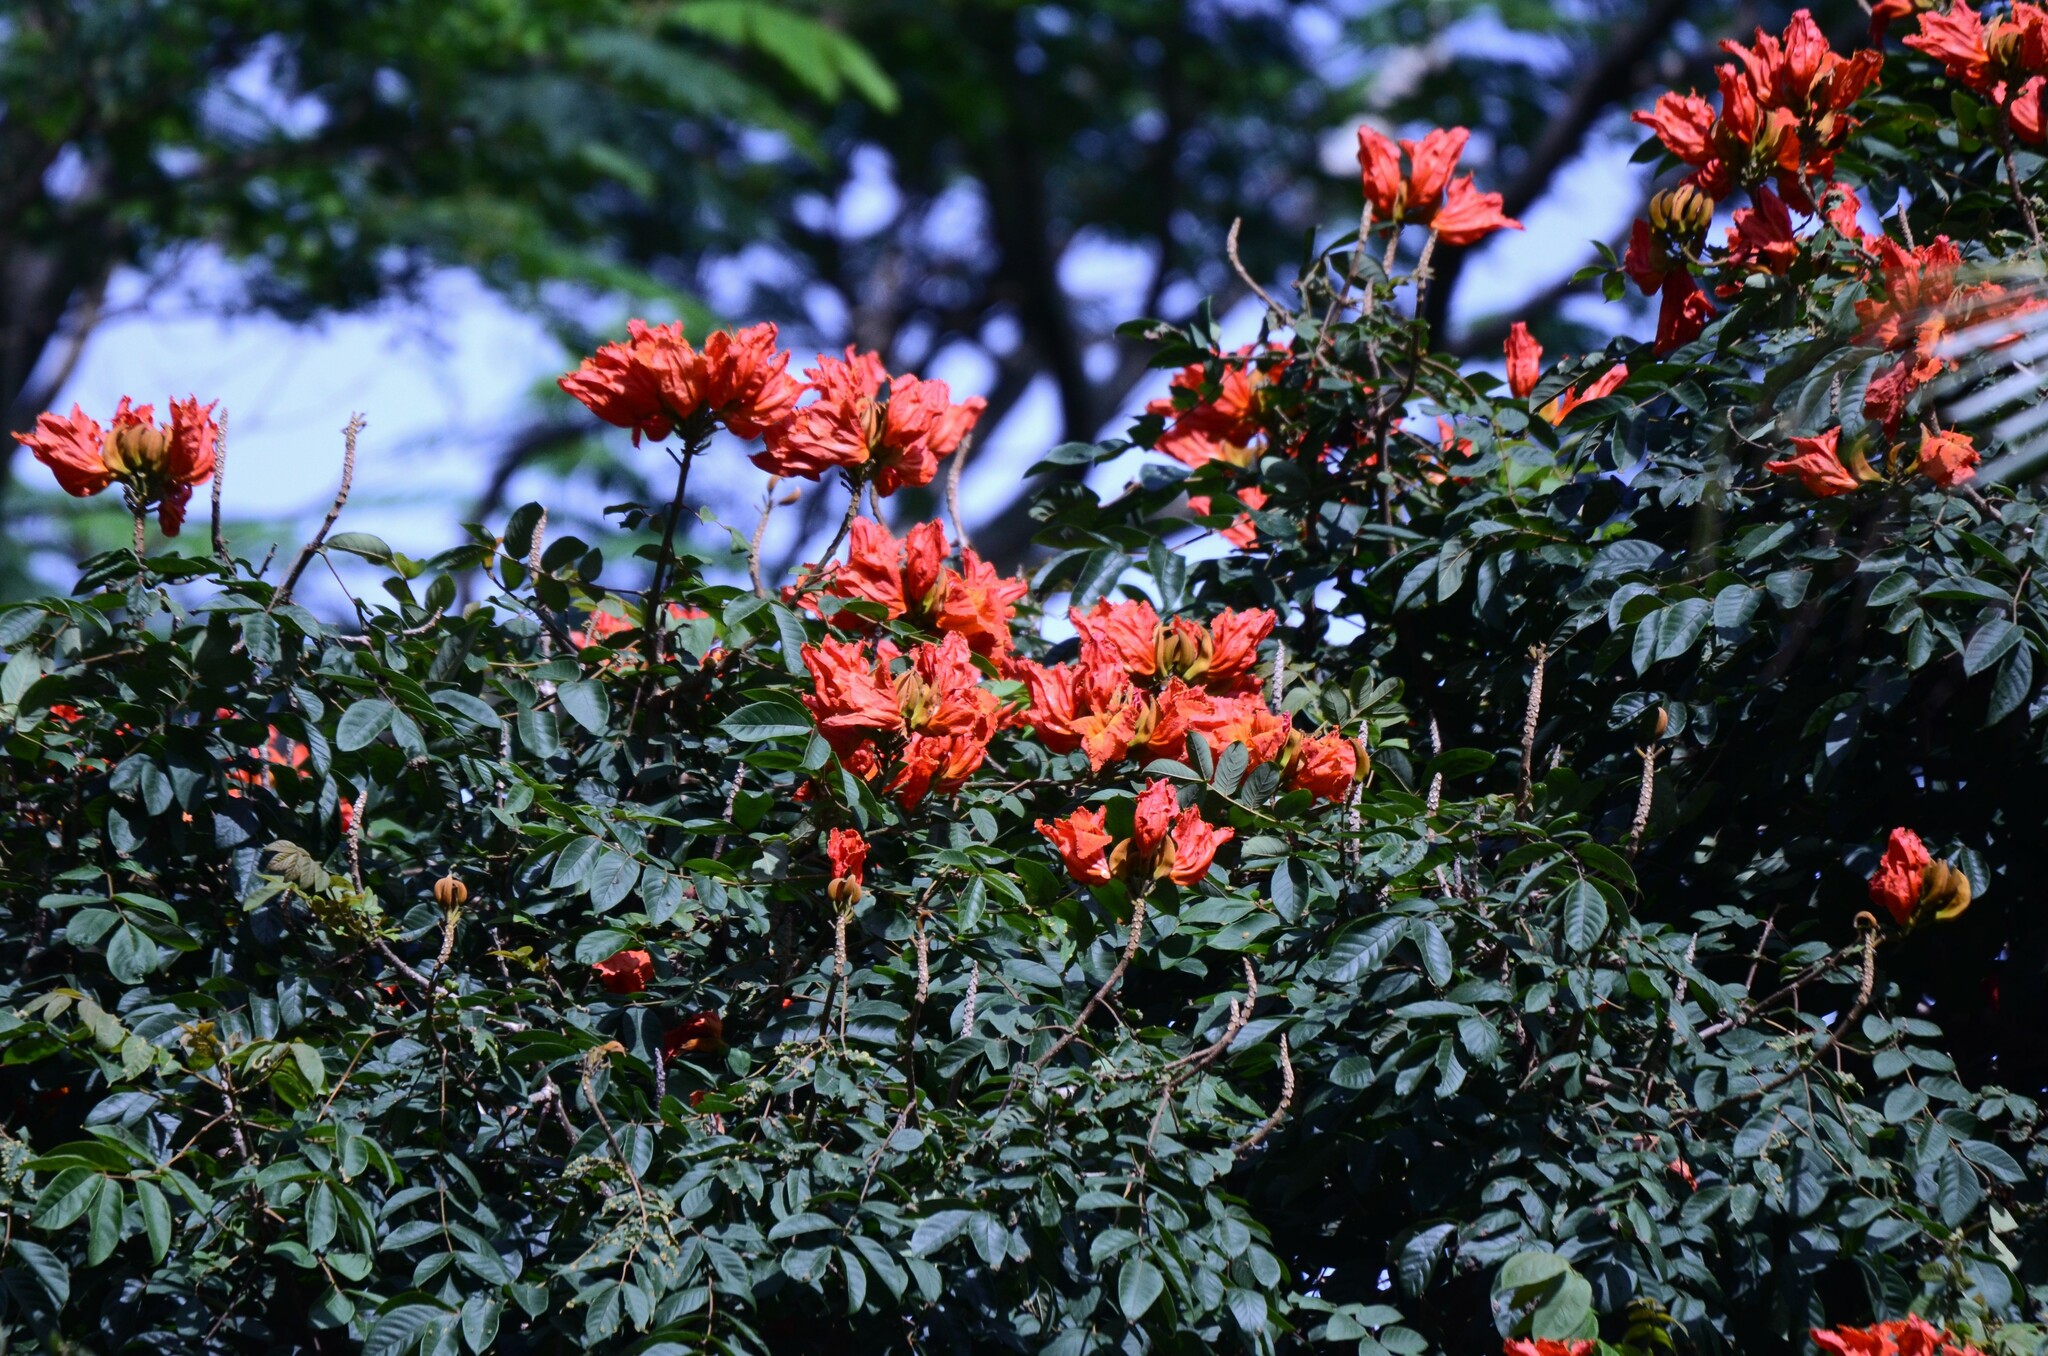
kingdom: Plantae
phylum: Tracheophyta
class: Magnoliopsida
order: Lamiales
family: Bignoniaceae
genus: Spathodea
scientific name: Spathodea campanulata
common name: African tuliptree
